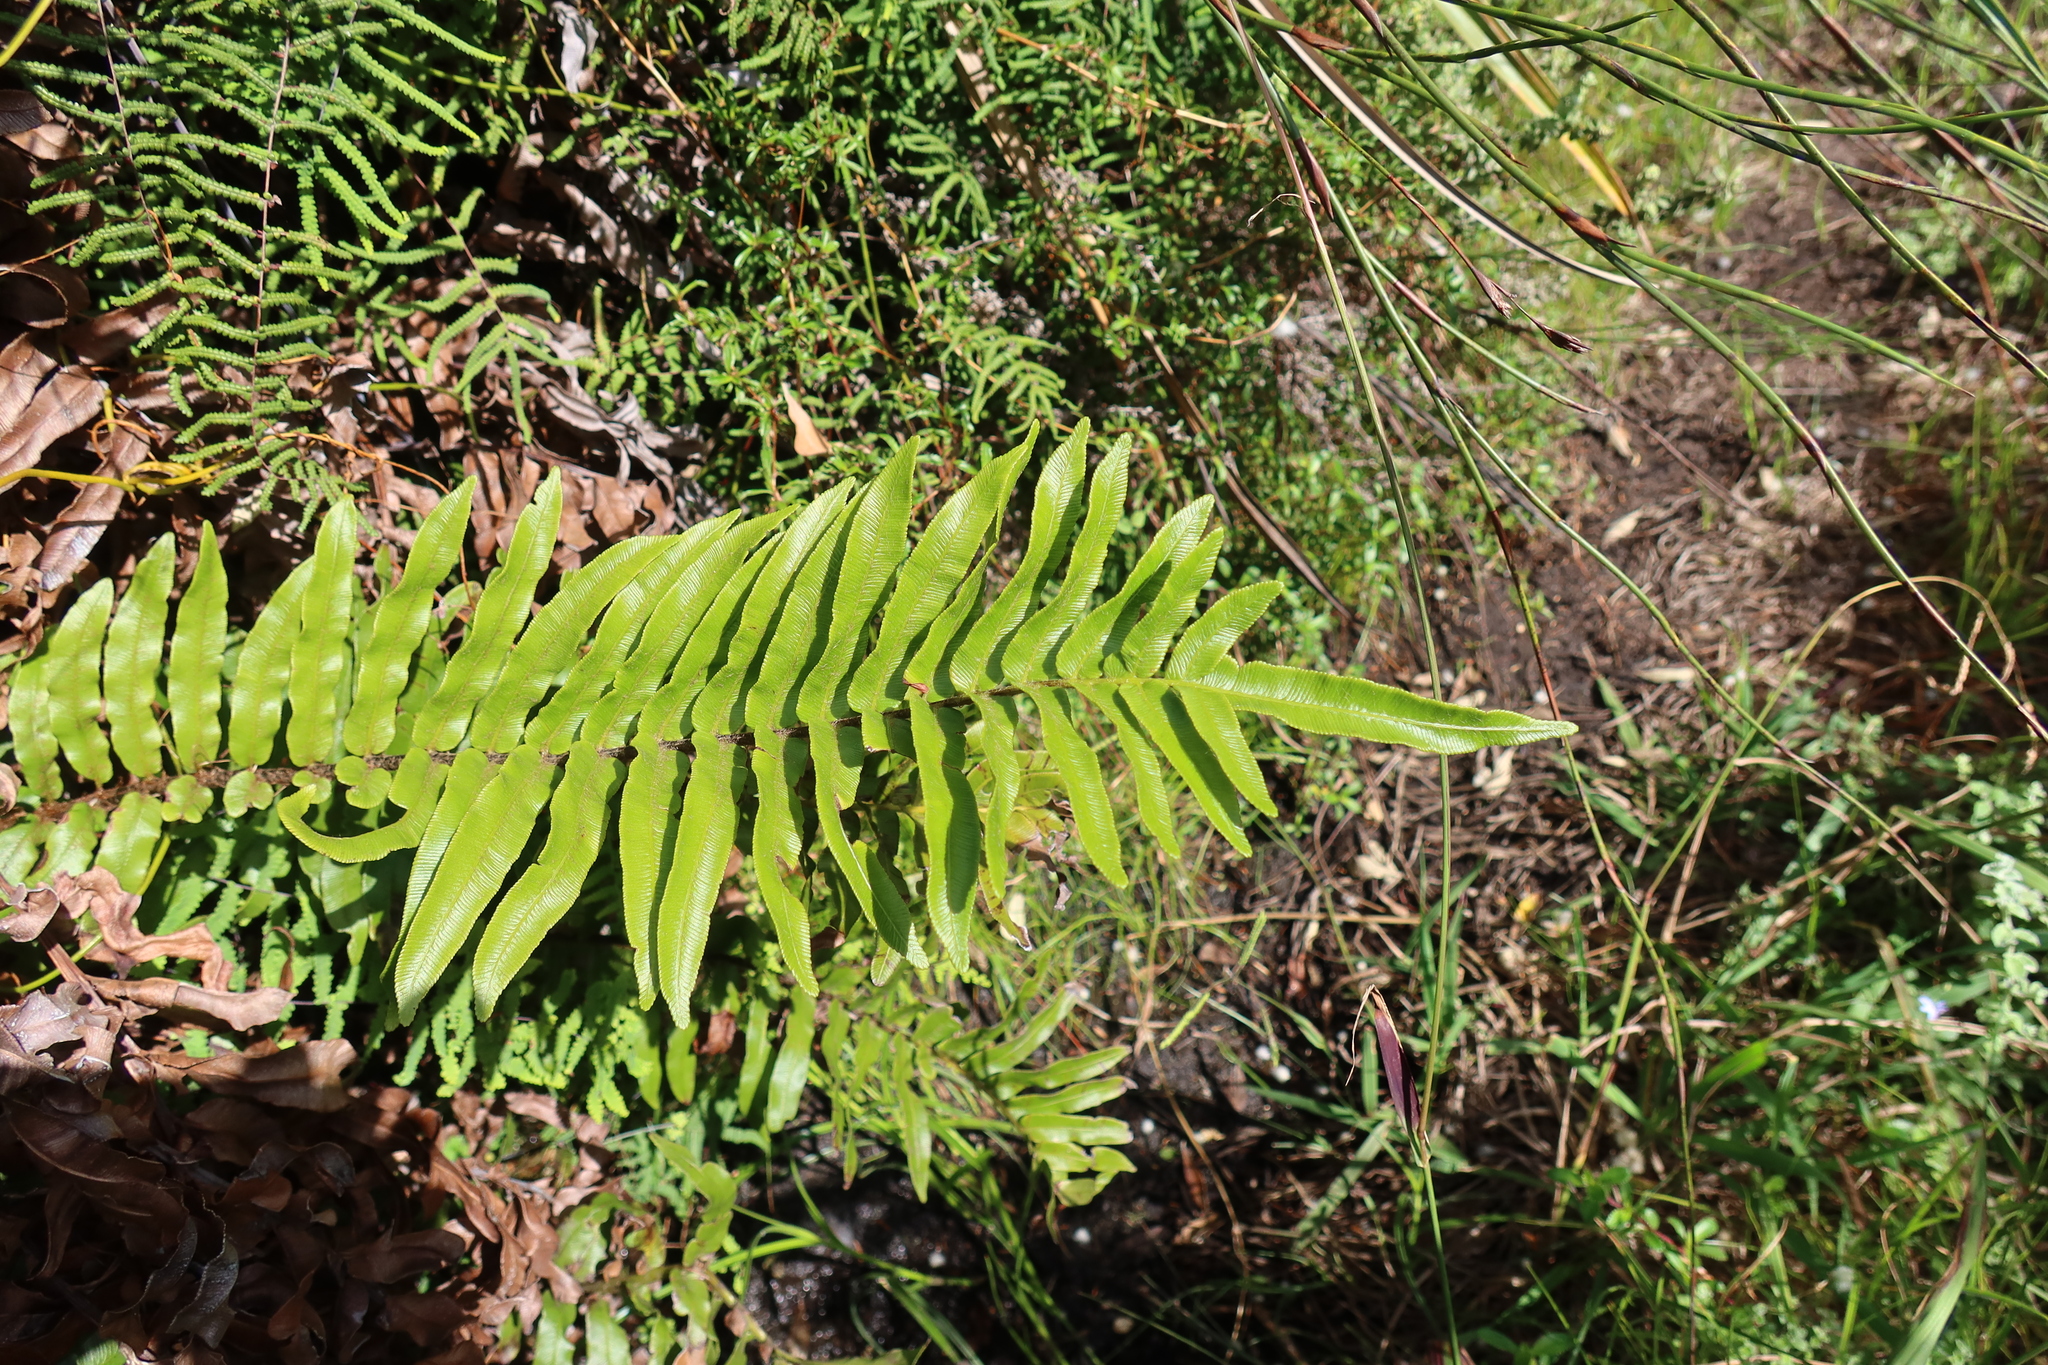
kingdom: Plantae
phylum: Tracheophyta
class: Polypodiopsida
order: Polypodiales
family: Blechnaceae
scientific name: Blechnaceae
